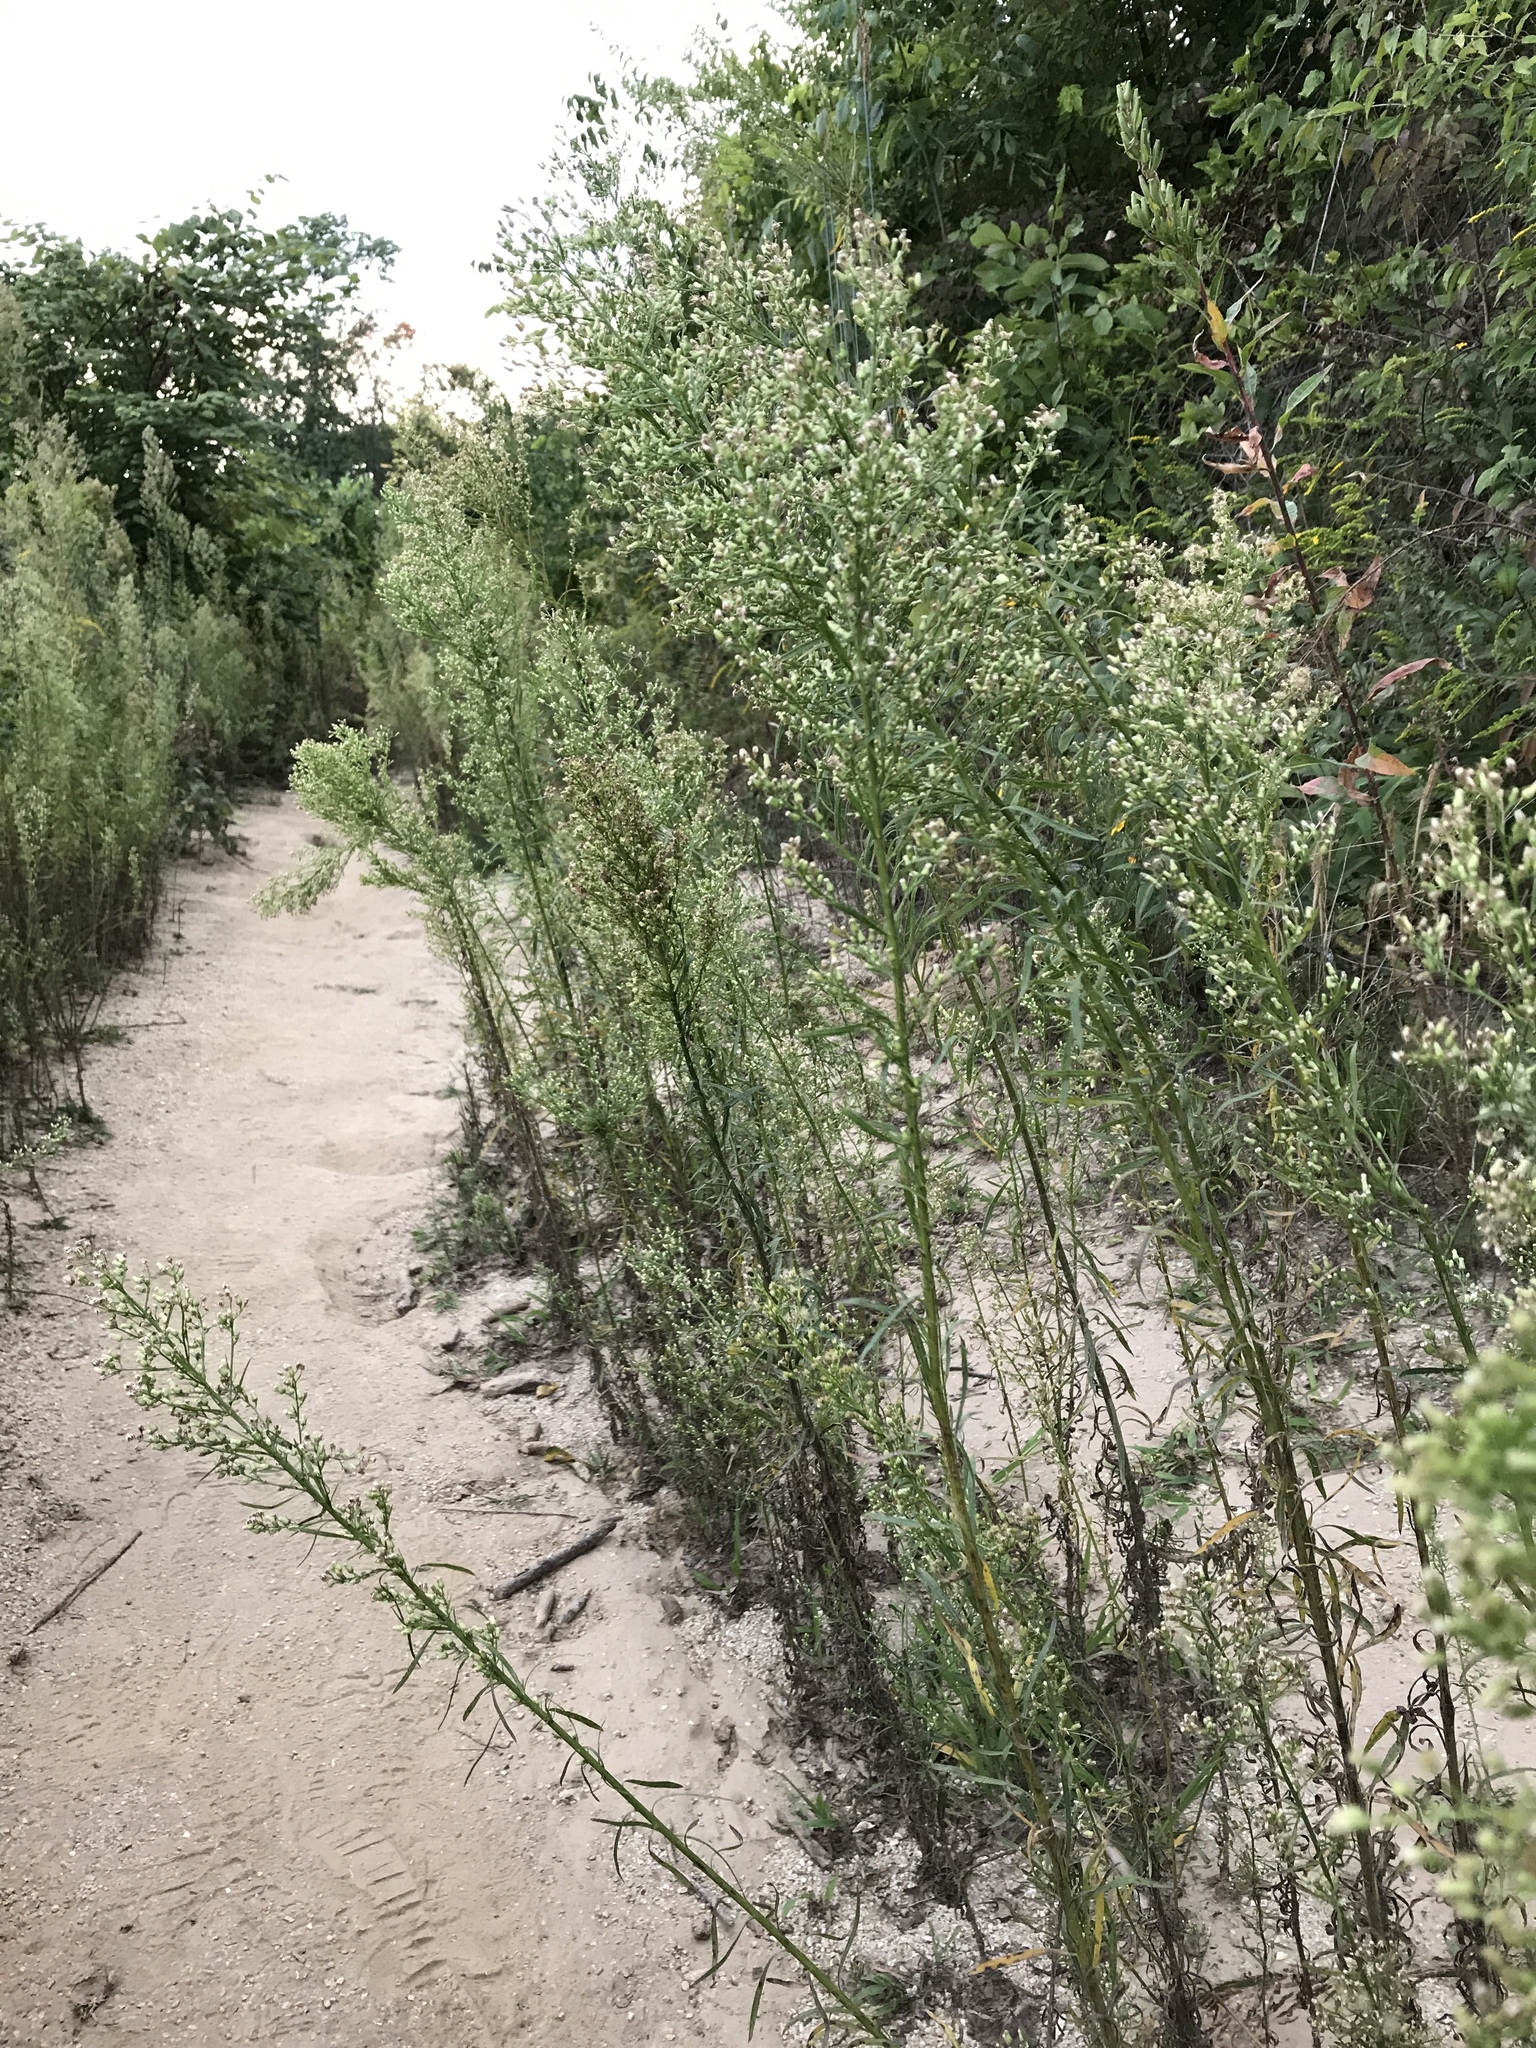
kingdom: Plantae
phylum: Tracheophyta
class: Magnoliopsida
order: Asterales
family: Asteraceae
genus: Erigeron
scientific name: Erigeron canadensis
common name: Canadian fleabane
